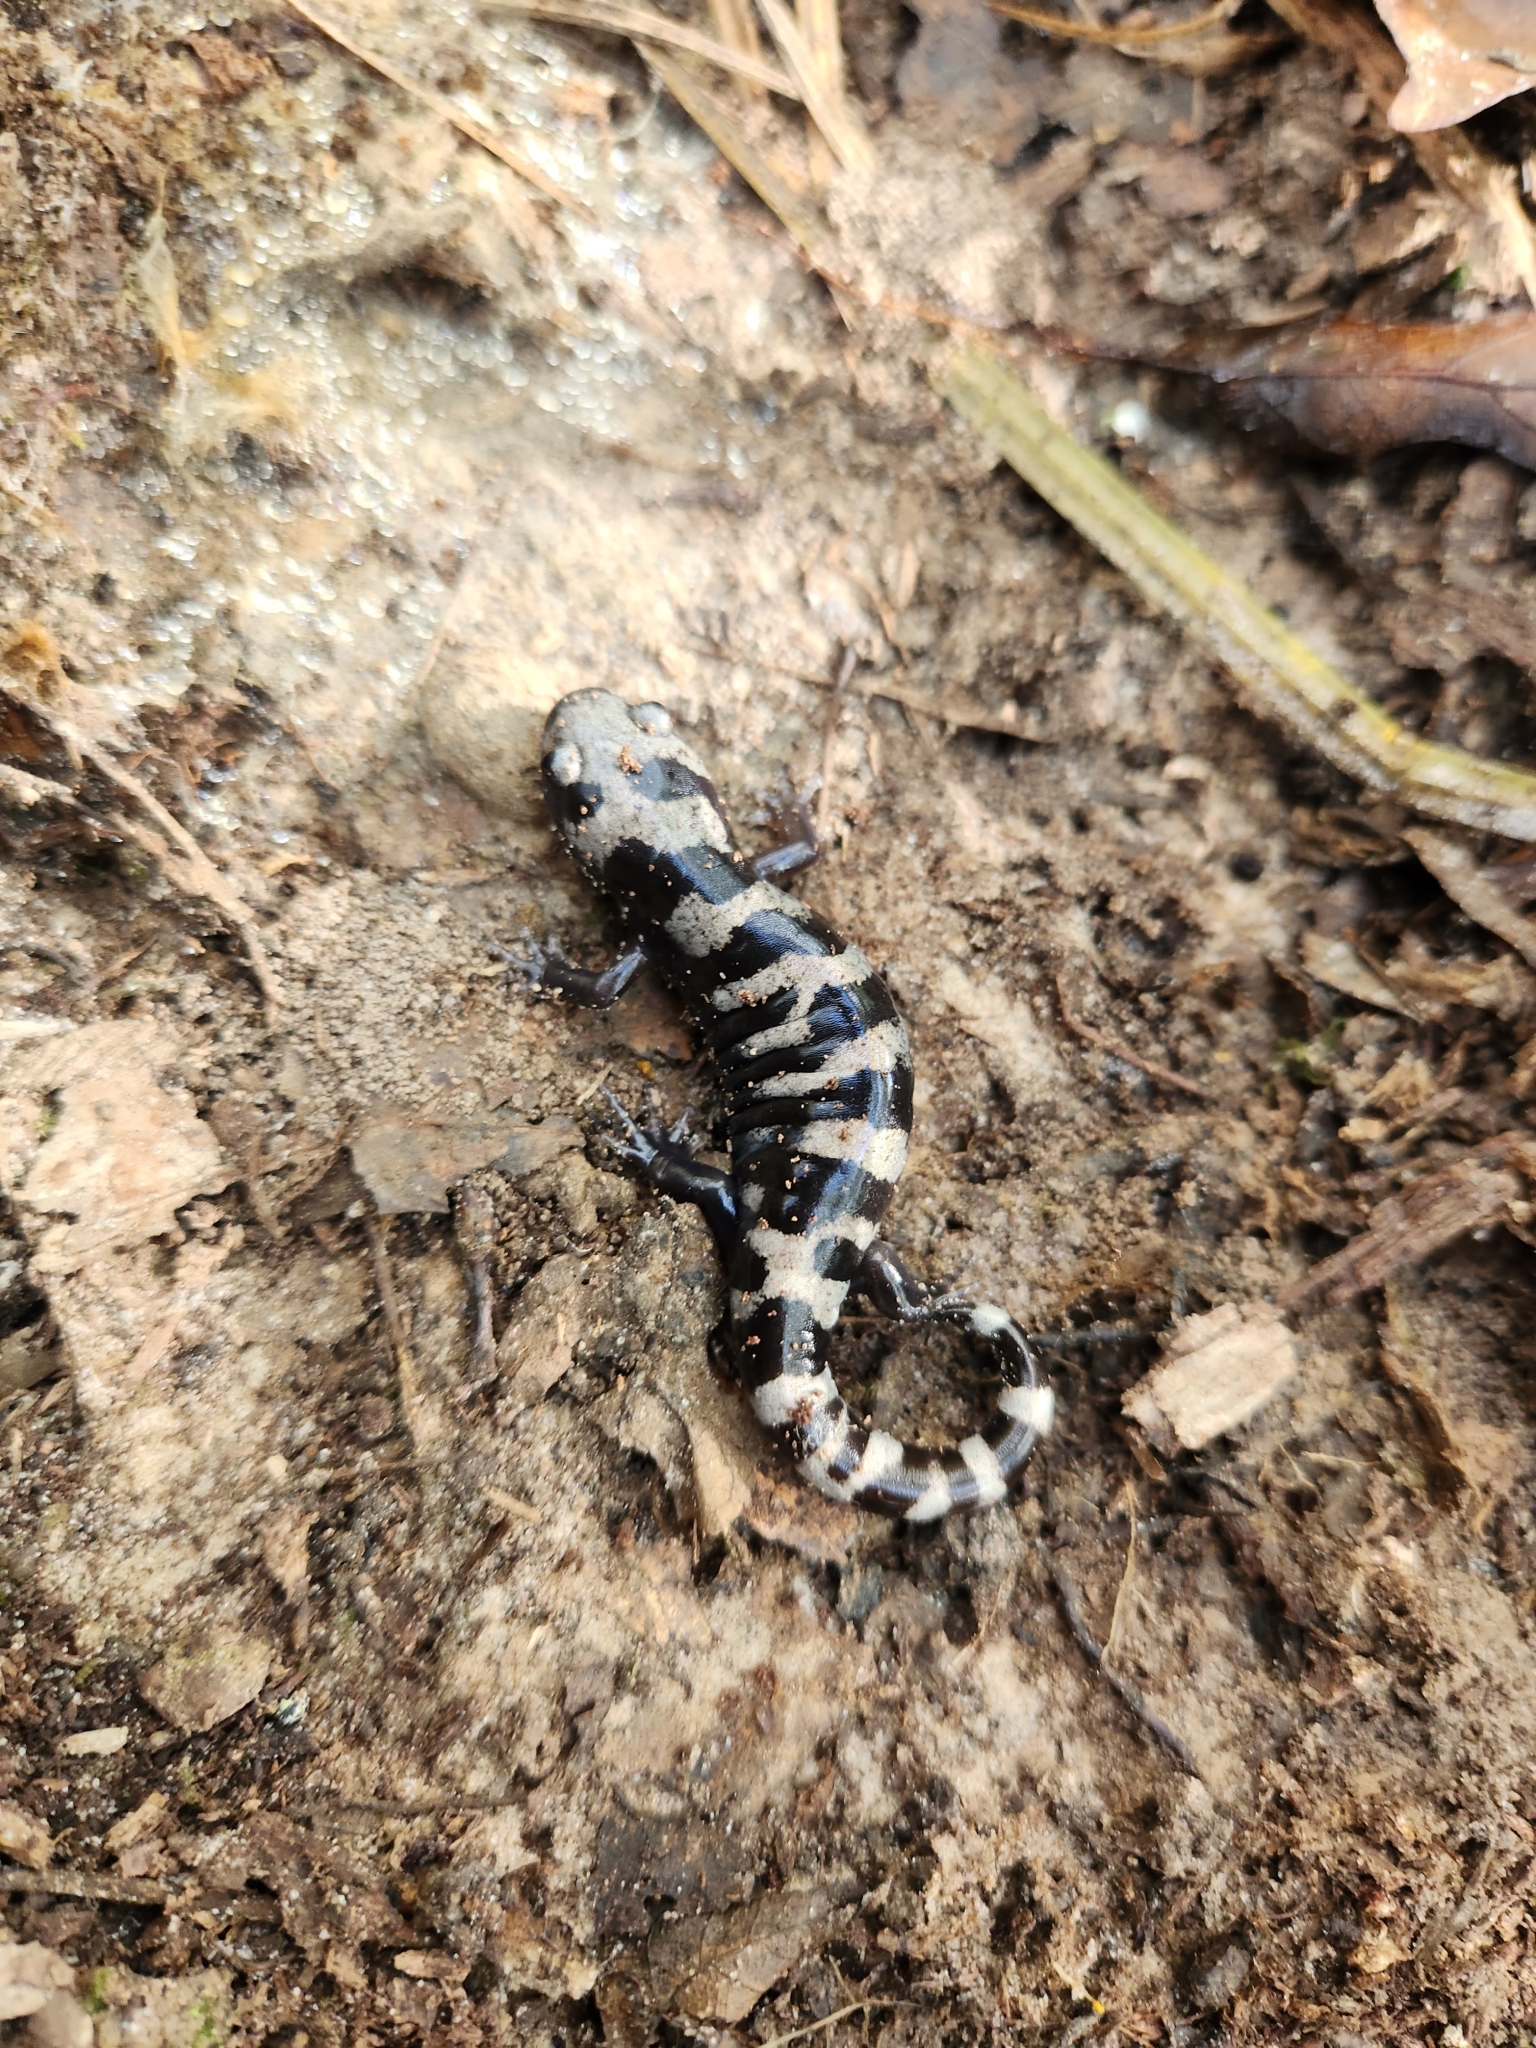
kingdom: Animalia
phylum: Chordata
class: Amphibia
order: Caudata
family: Ambystomatidae
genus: Ambystoma
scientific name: Ambystoma opacum
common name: Marbled salamander
